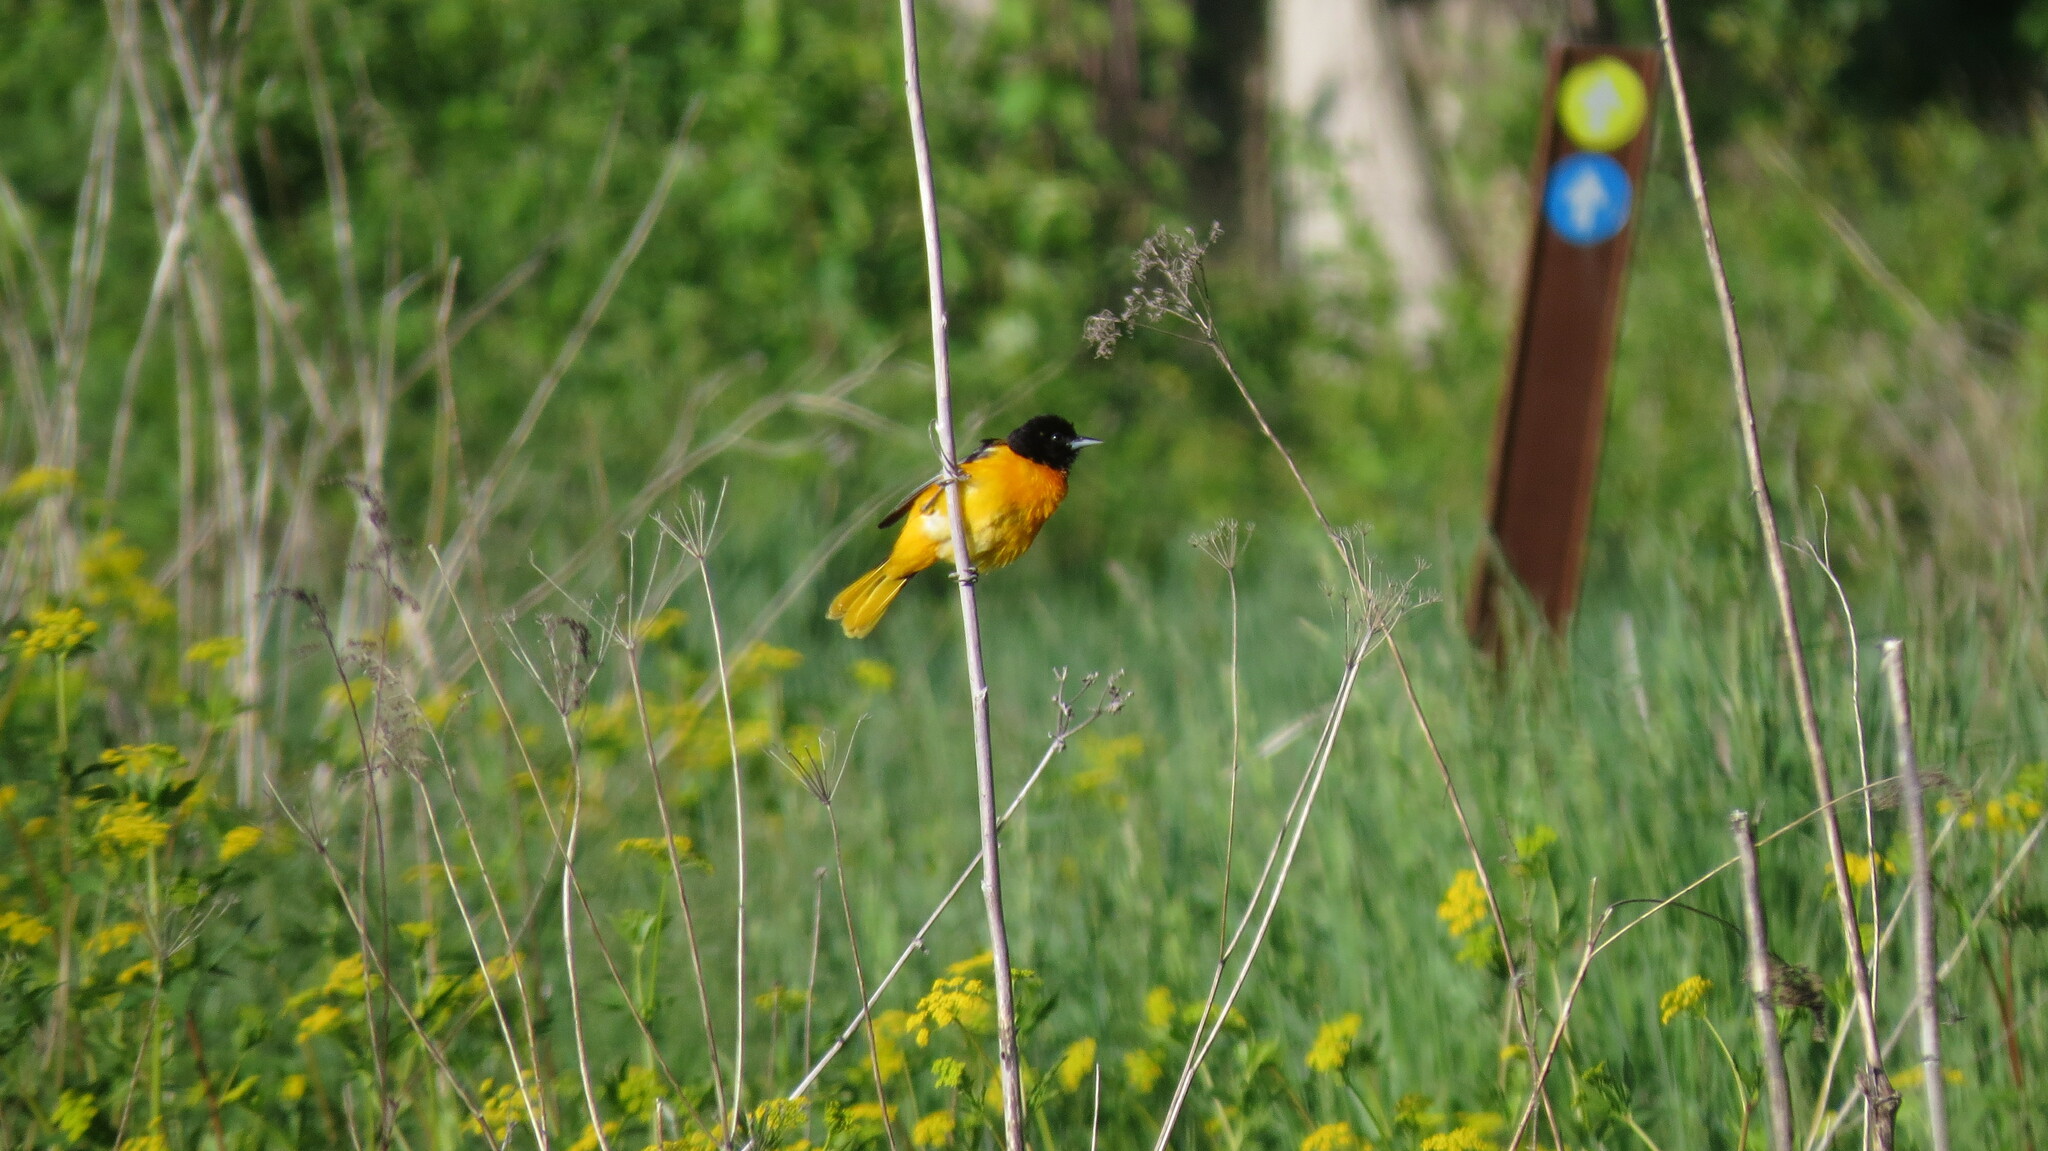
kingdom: Animalia
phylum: Chordata
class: Aves
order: Passeriformes
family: Icteridae
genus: Icterus
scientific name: Icterus galbula
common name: Baltimore oriole
